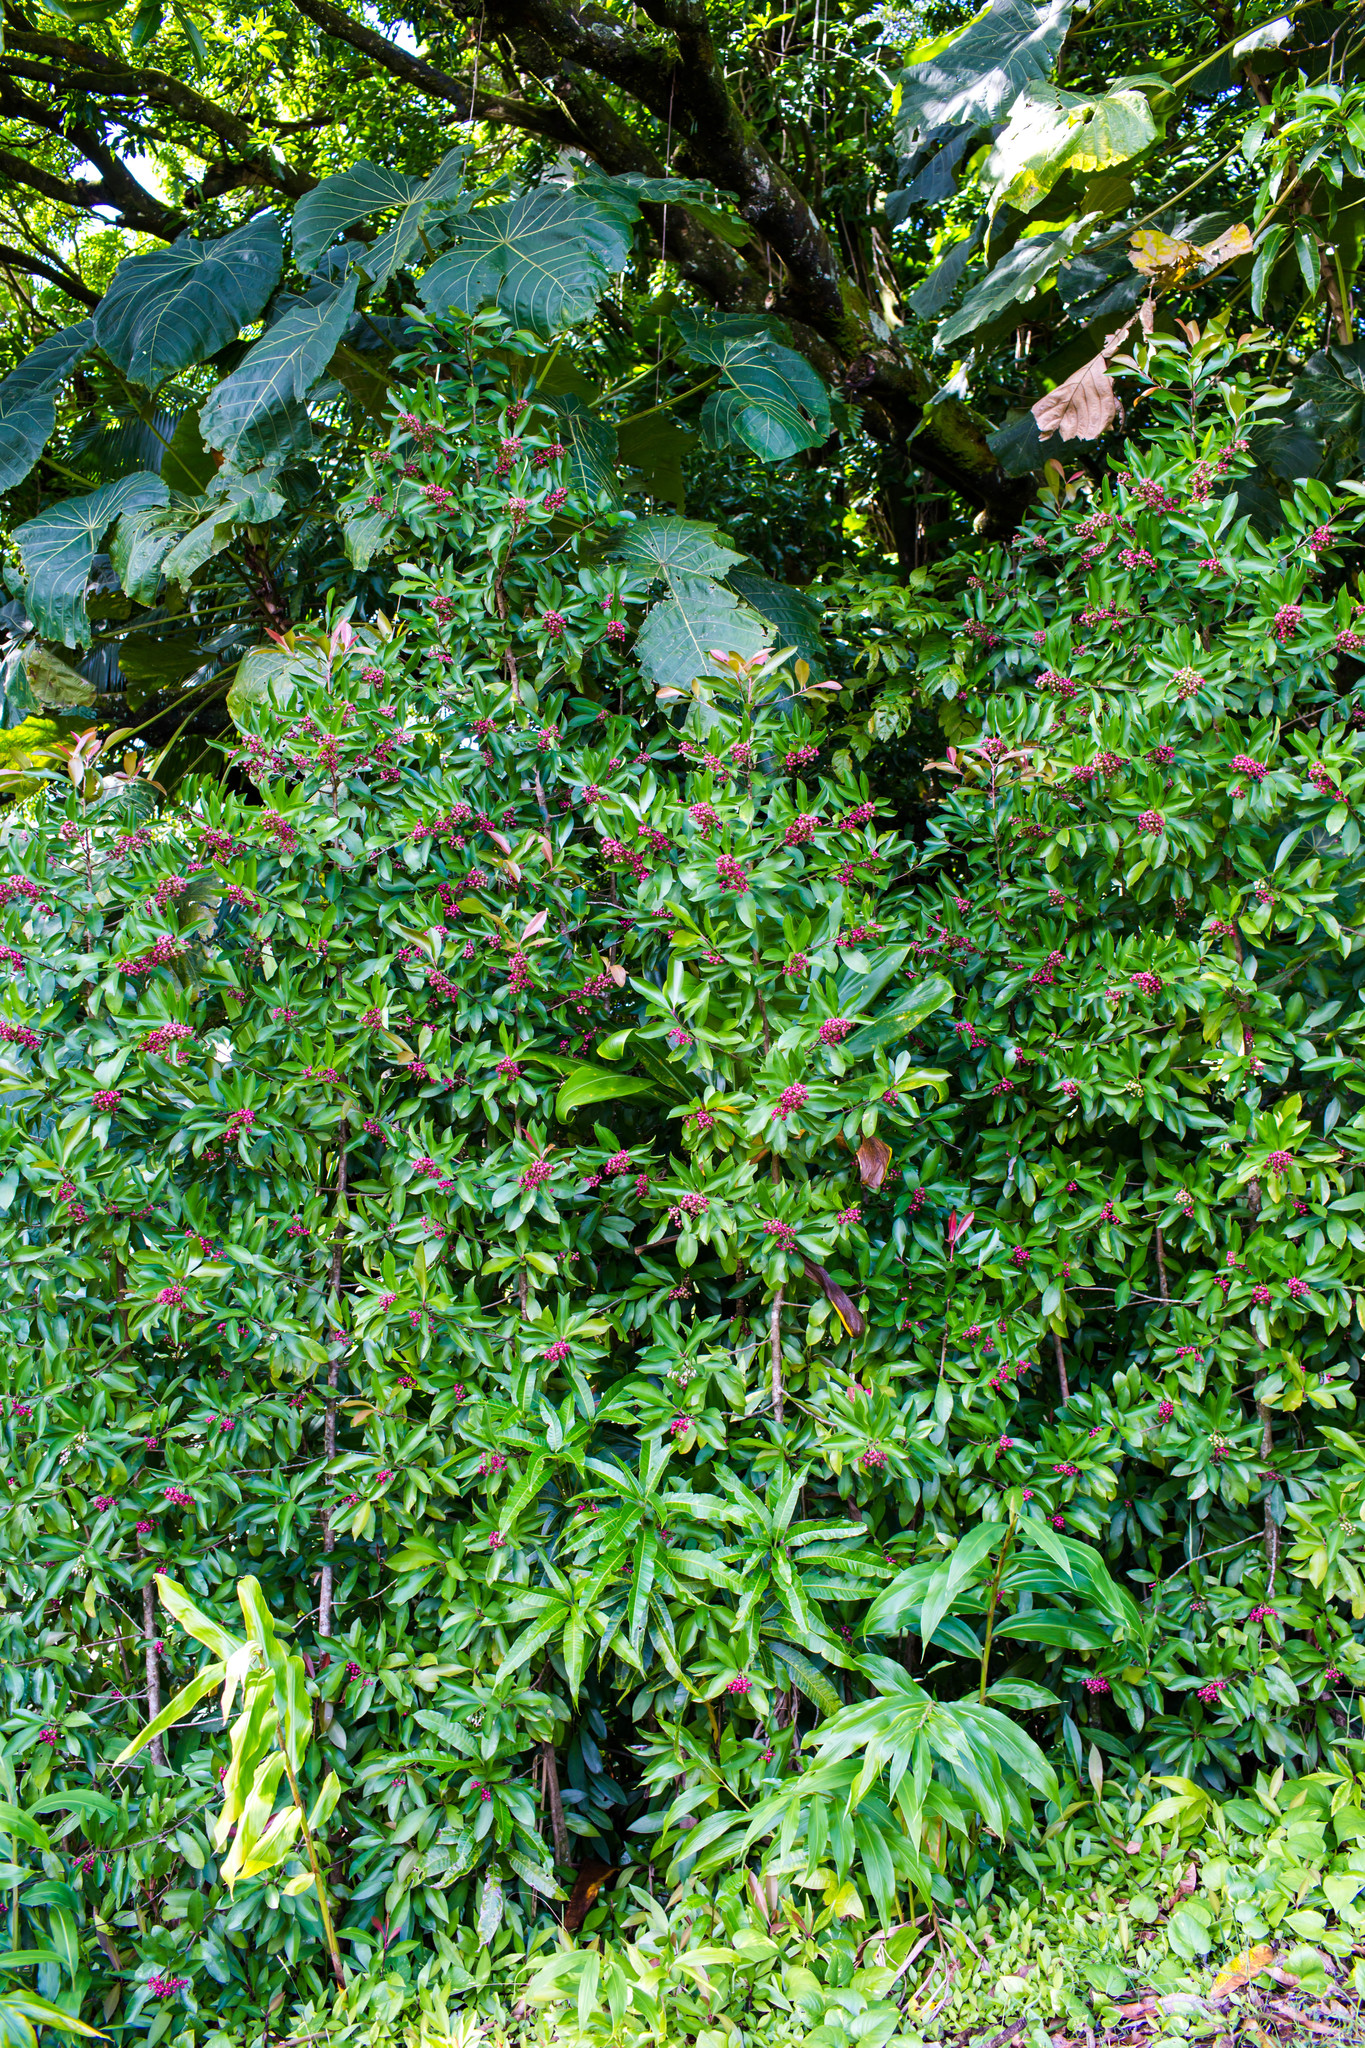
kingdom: Plantae
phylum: Tracheophyta
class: Magnoliopsida
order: Ericales
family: Primulaceae
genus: Ardisia
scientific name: Ardisia elliptica
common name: Shoebutton
